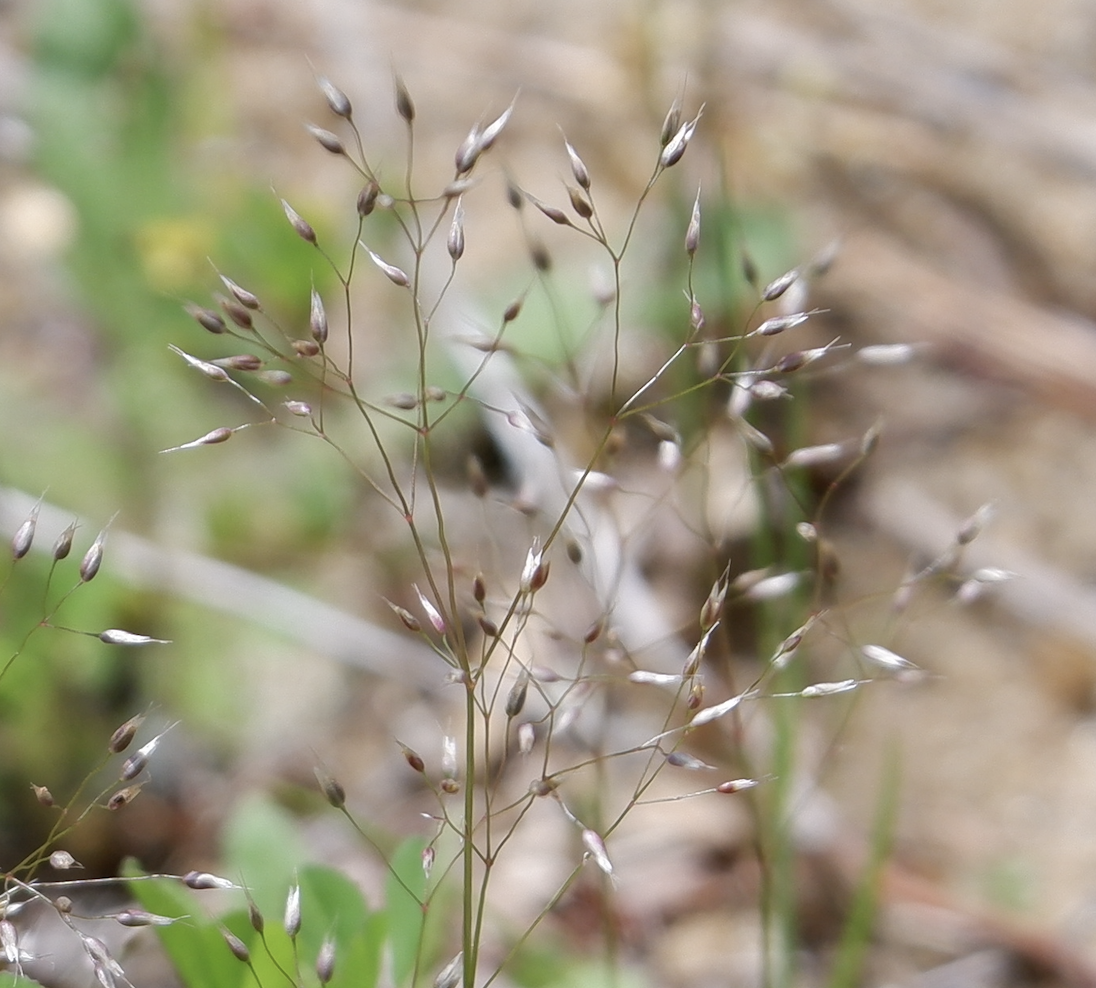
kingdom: Plantae
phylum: Tracheophyta
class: Liliopsida
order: Poales
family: Poaceae
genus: Aira
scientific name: Aira caryophyllea
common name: Silver hairgrass
